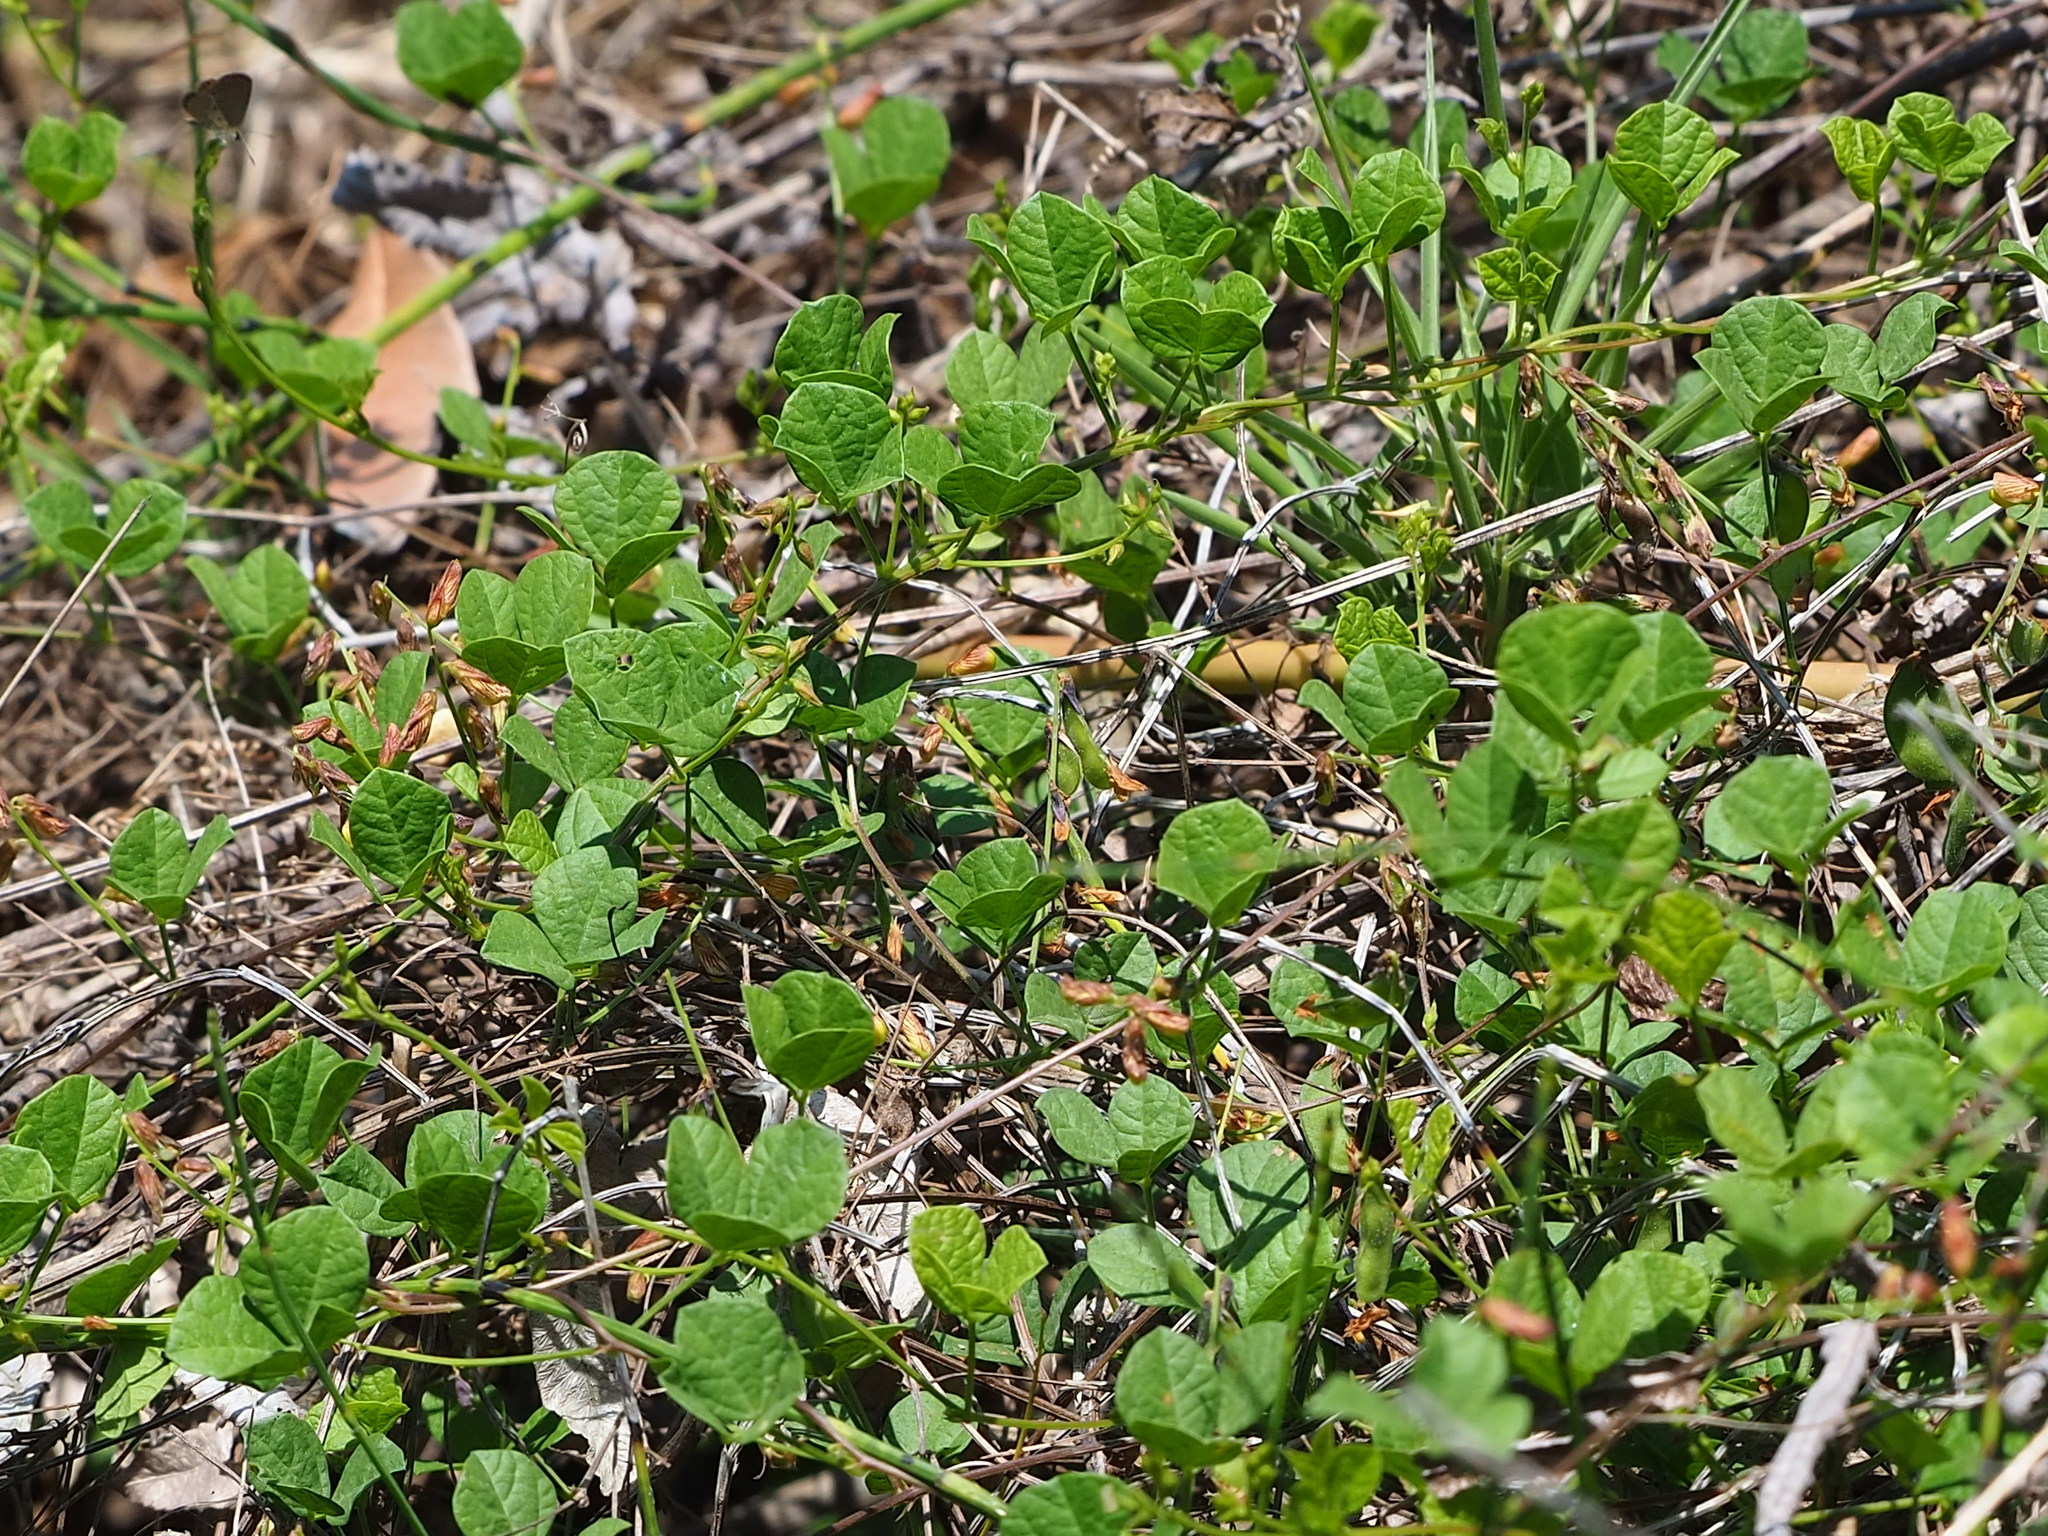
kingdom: Plantae
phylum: Tracheophyta
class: Magnoliopsida
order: Fabales
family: Fabaceae
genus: Cajanus
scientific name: Cajanus scarabaeoides
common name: Showy pigeonpea
